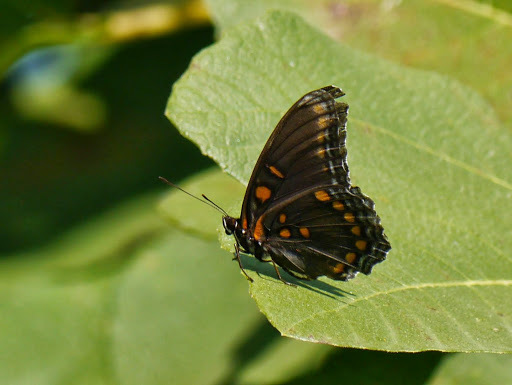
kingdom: Animalia
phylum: Arthropoda
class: Insecta
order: Lepidoptera
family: Nymphalidae
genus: Limenitis
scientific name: Limenitis astyanax
